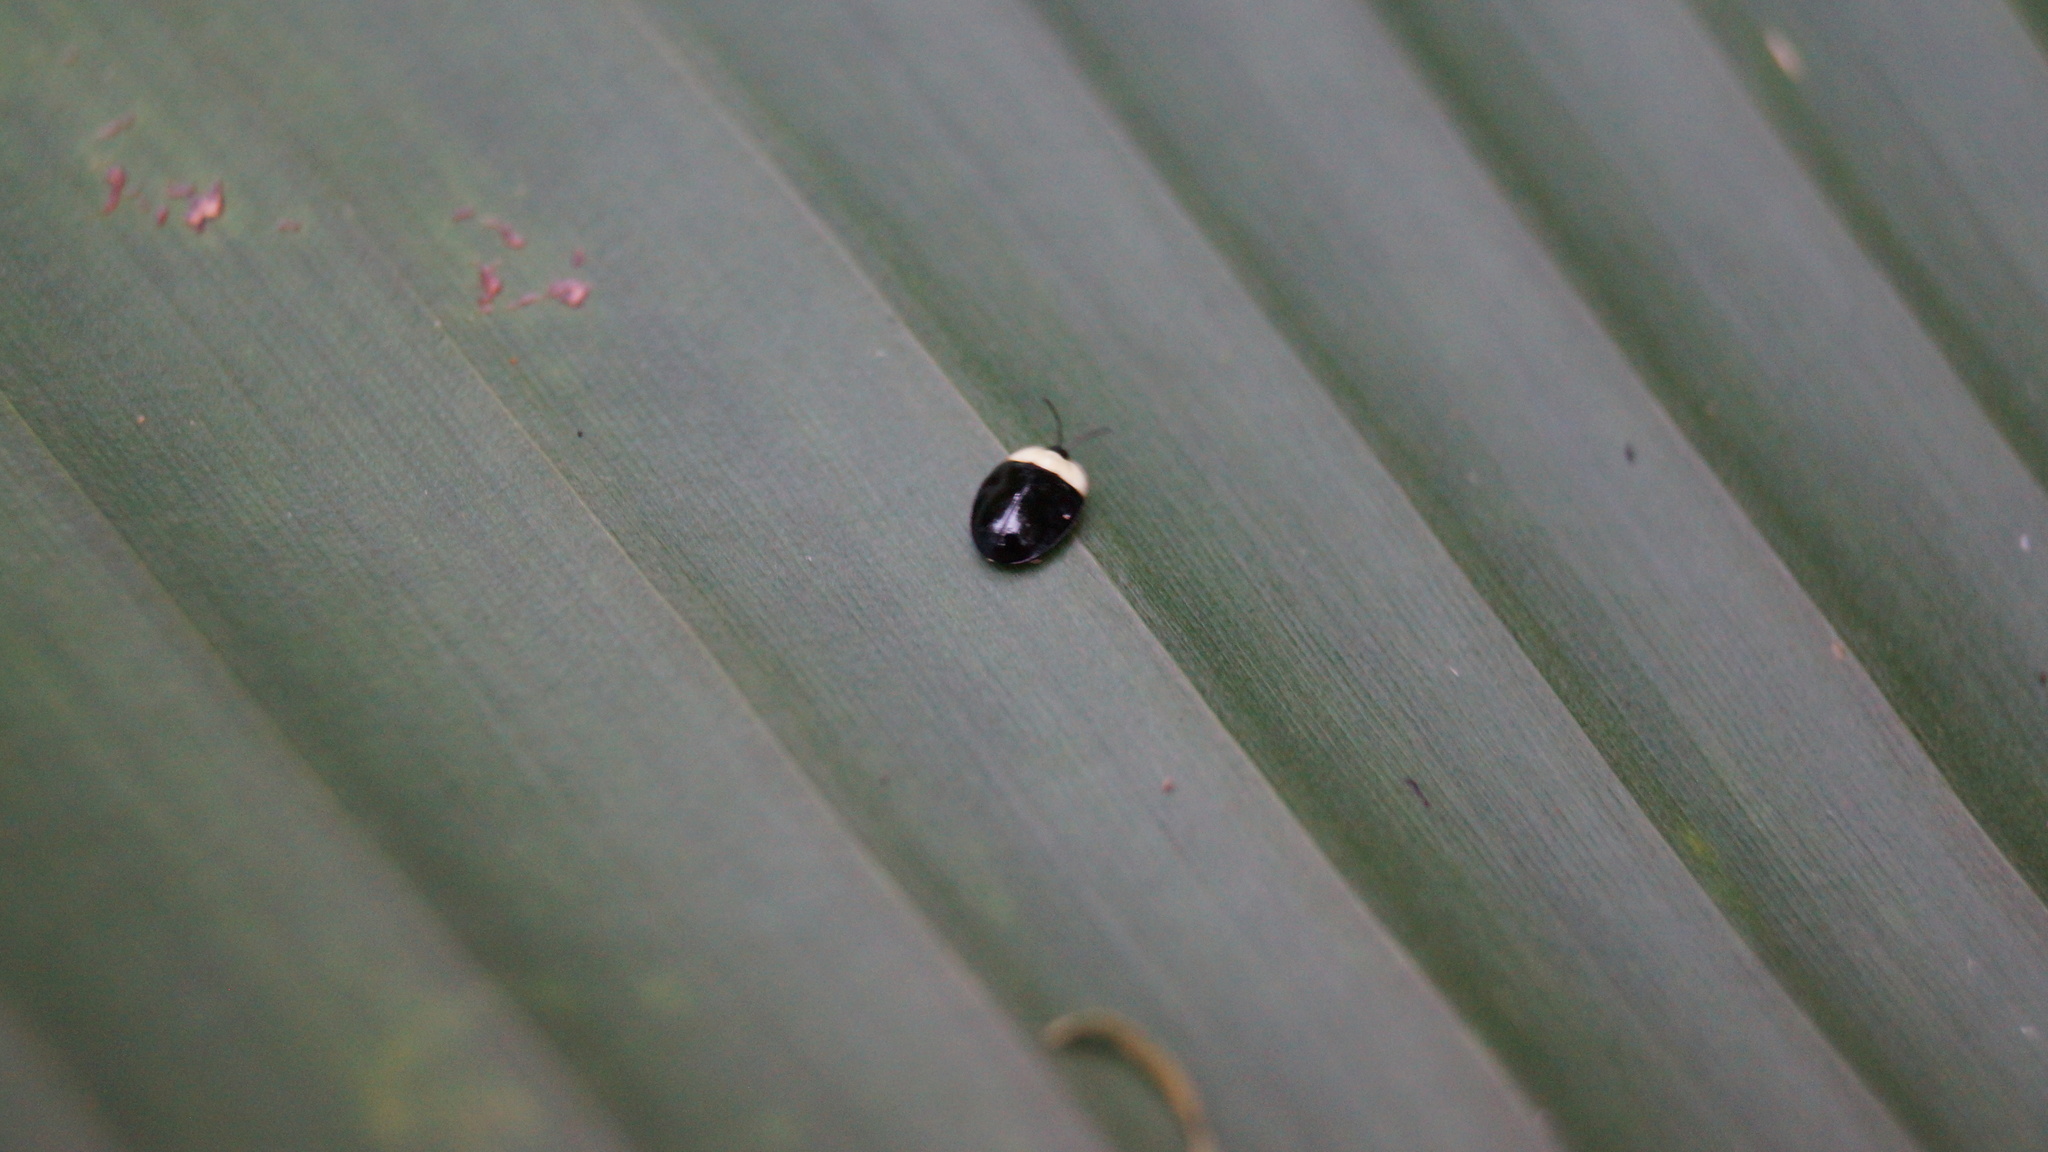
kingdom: Animalia
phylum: Arthropoda
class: Insecta
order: Coleoptera
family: Chrysomelidae
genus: Imatidium
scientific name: Imatidium thoracicum
